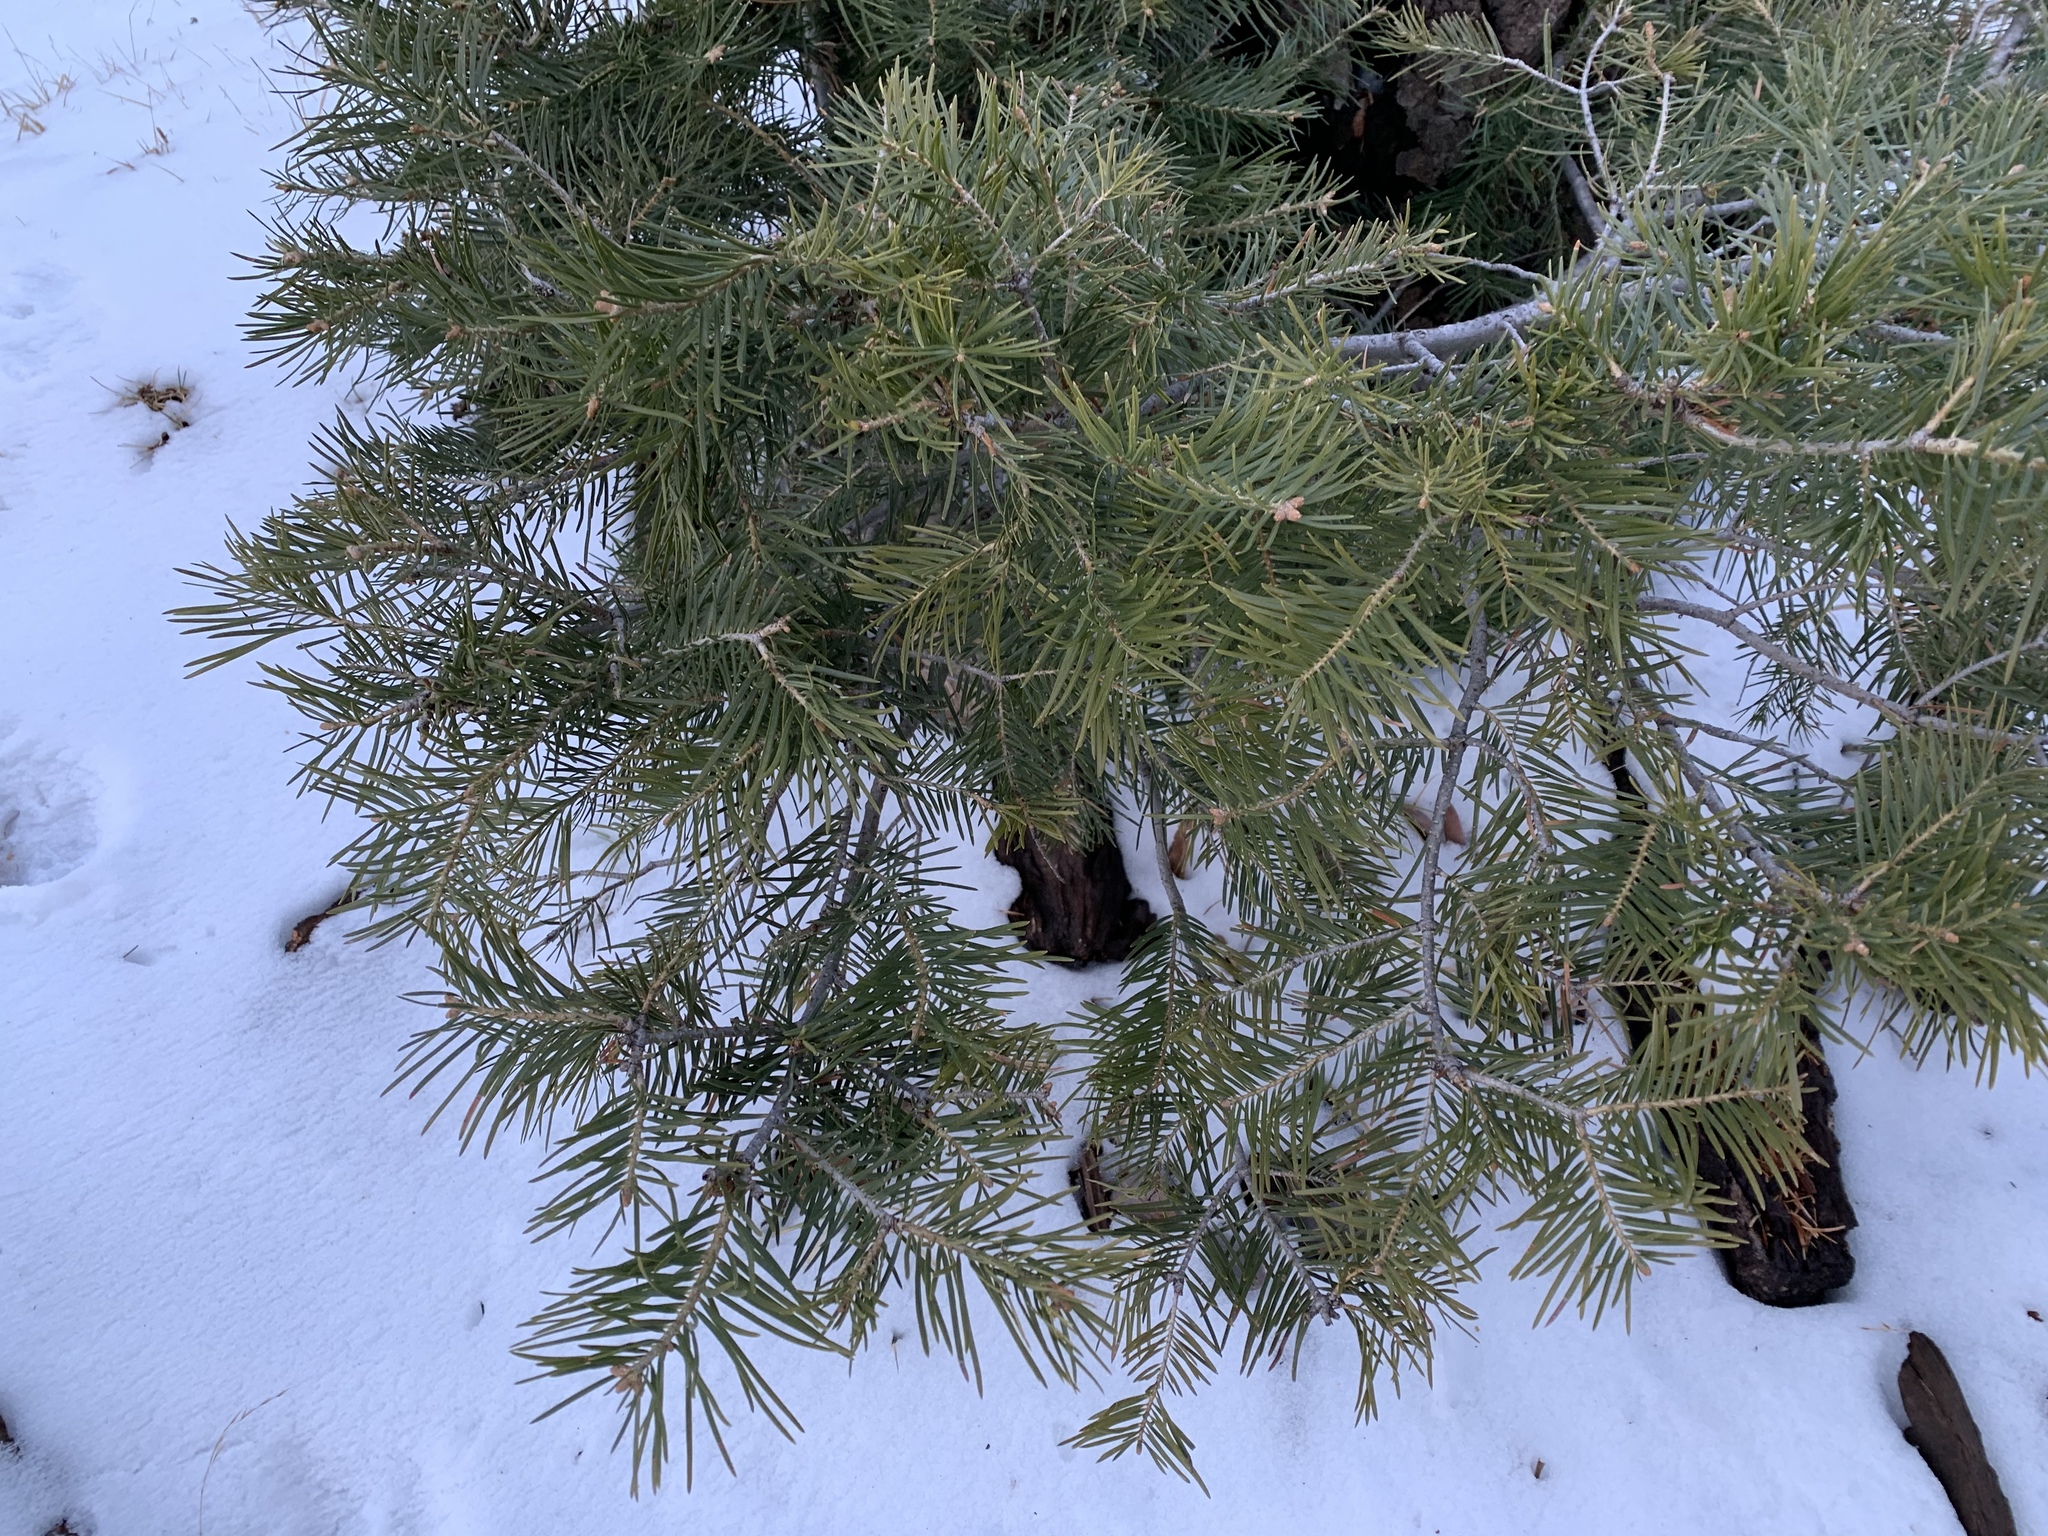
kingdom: Plantae
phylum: Tracheophyta
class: Pinopsida
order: Pinales
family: Pinaceae
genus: Abies
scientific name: Abies concolor
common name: Colorado fir
